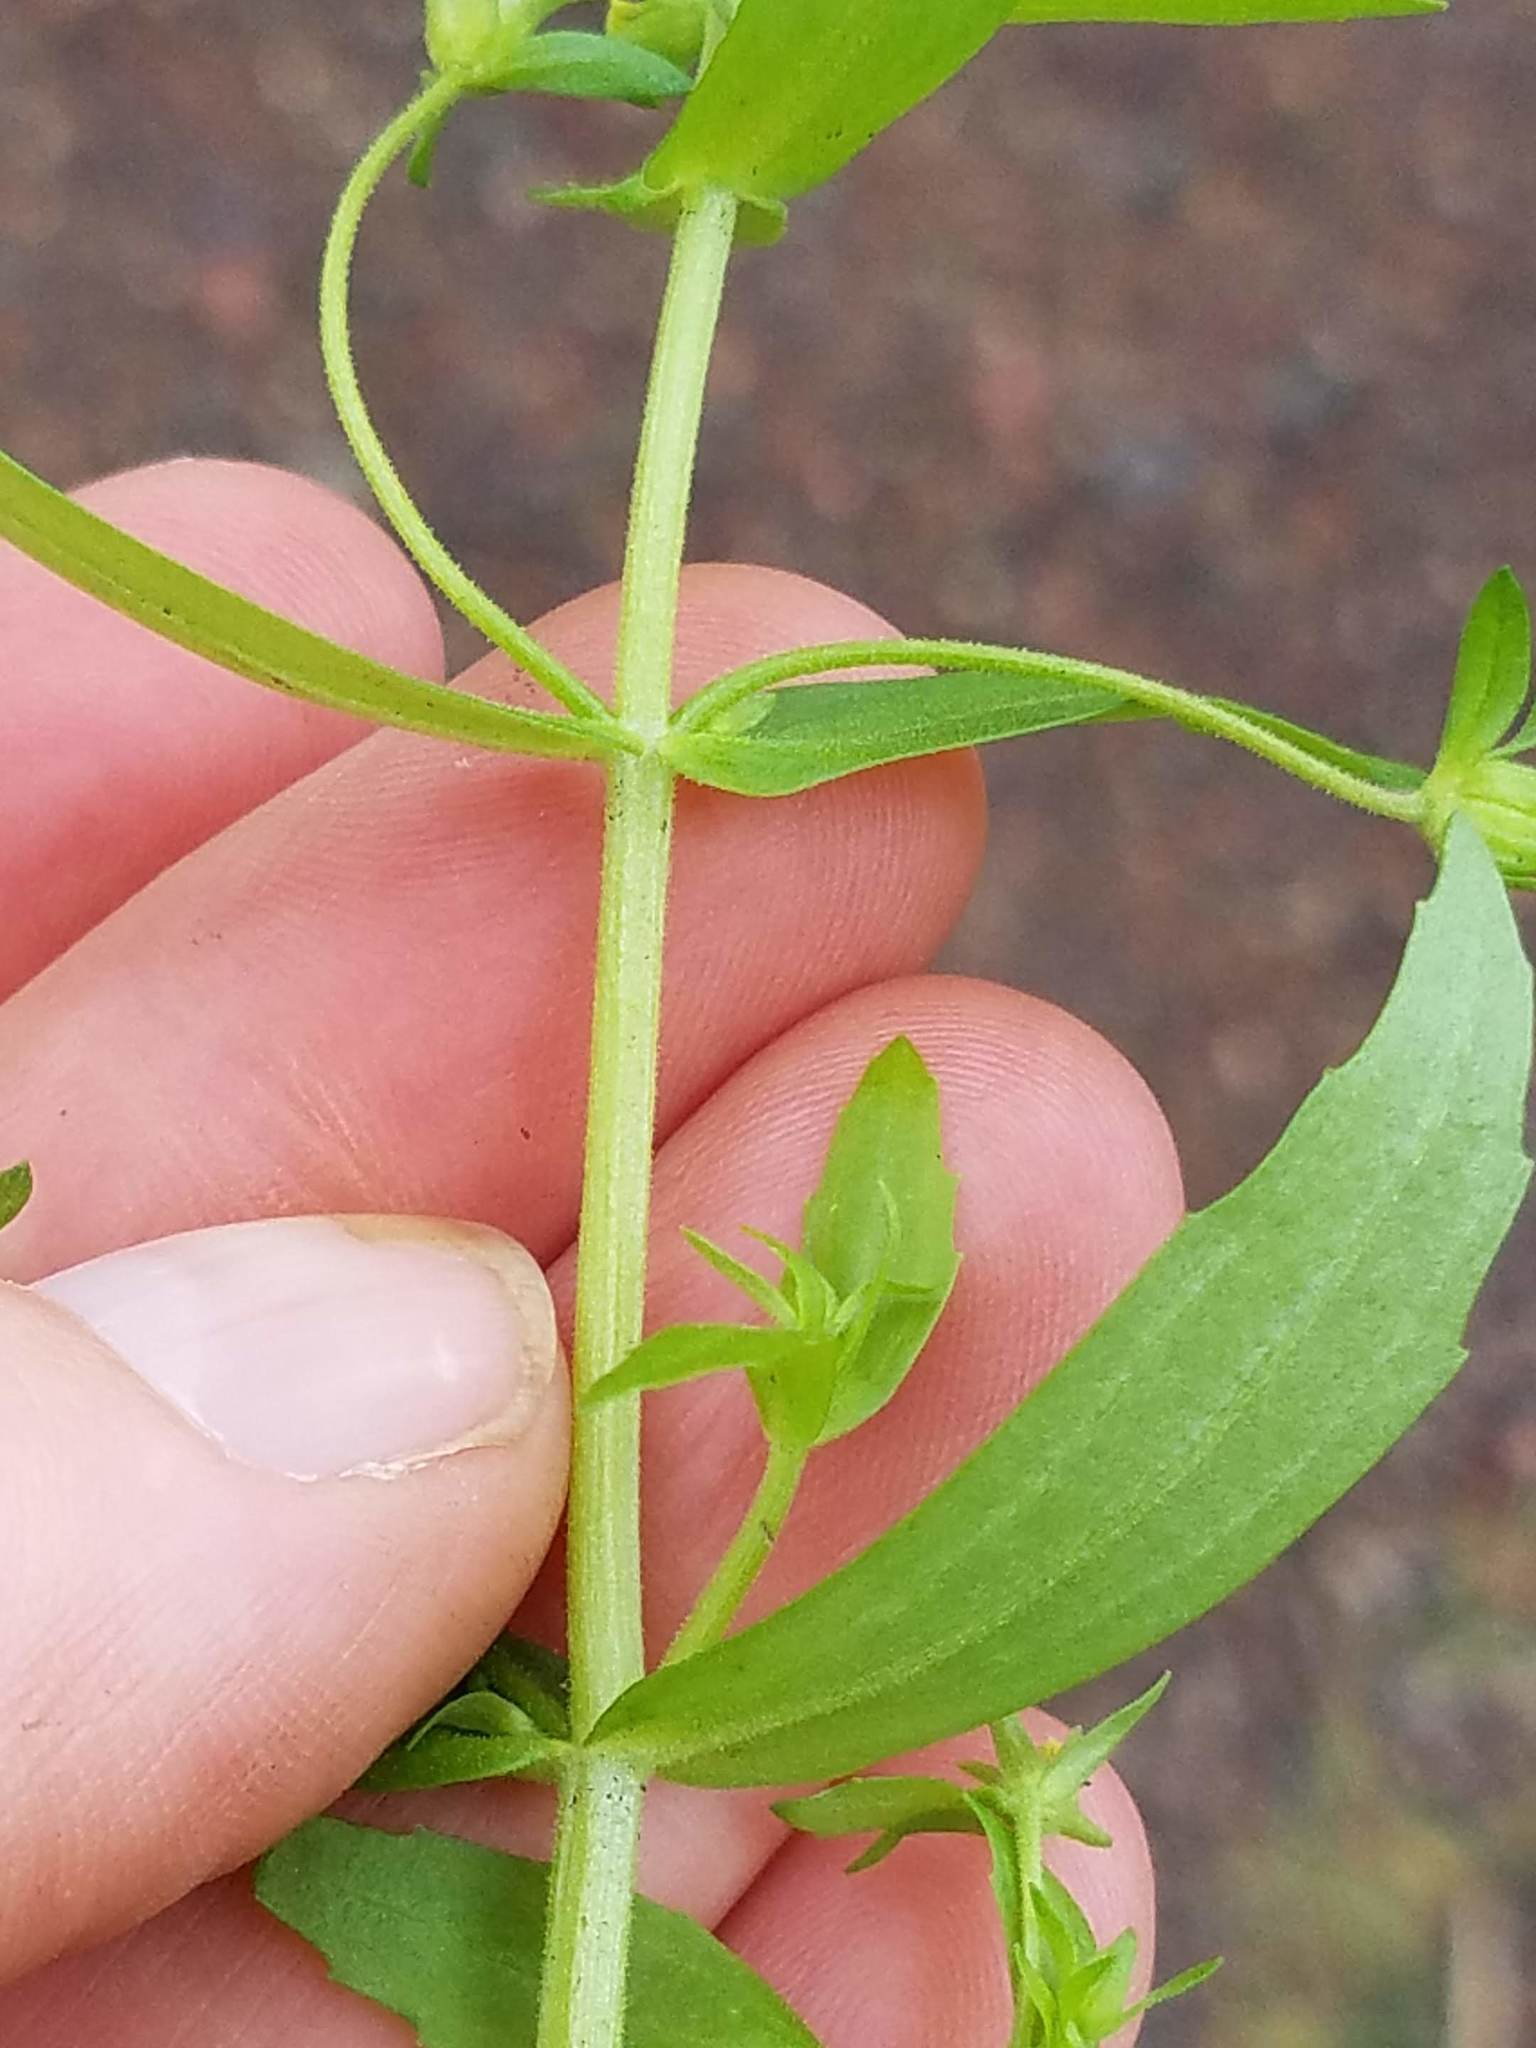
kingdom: Plantae
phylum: Tracheophyta
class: Magnoliopsida
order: Lamiales
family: Plantaginaceae
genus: Gratiola
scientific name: Gratiola neglecta
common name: American hedge-hyssop
